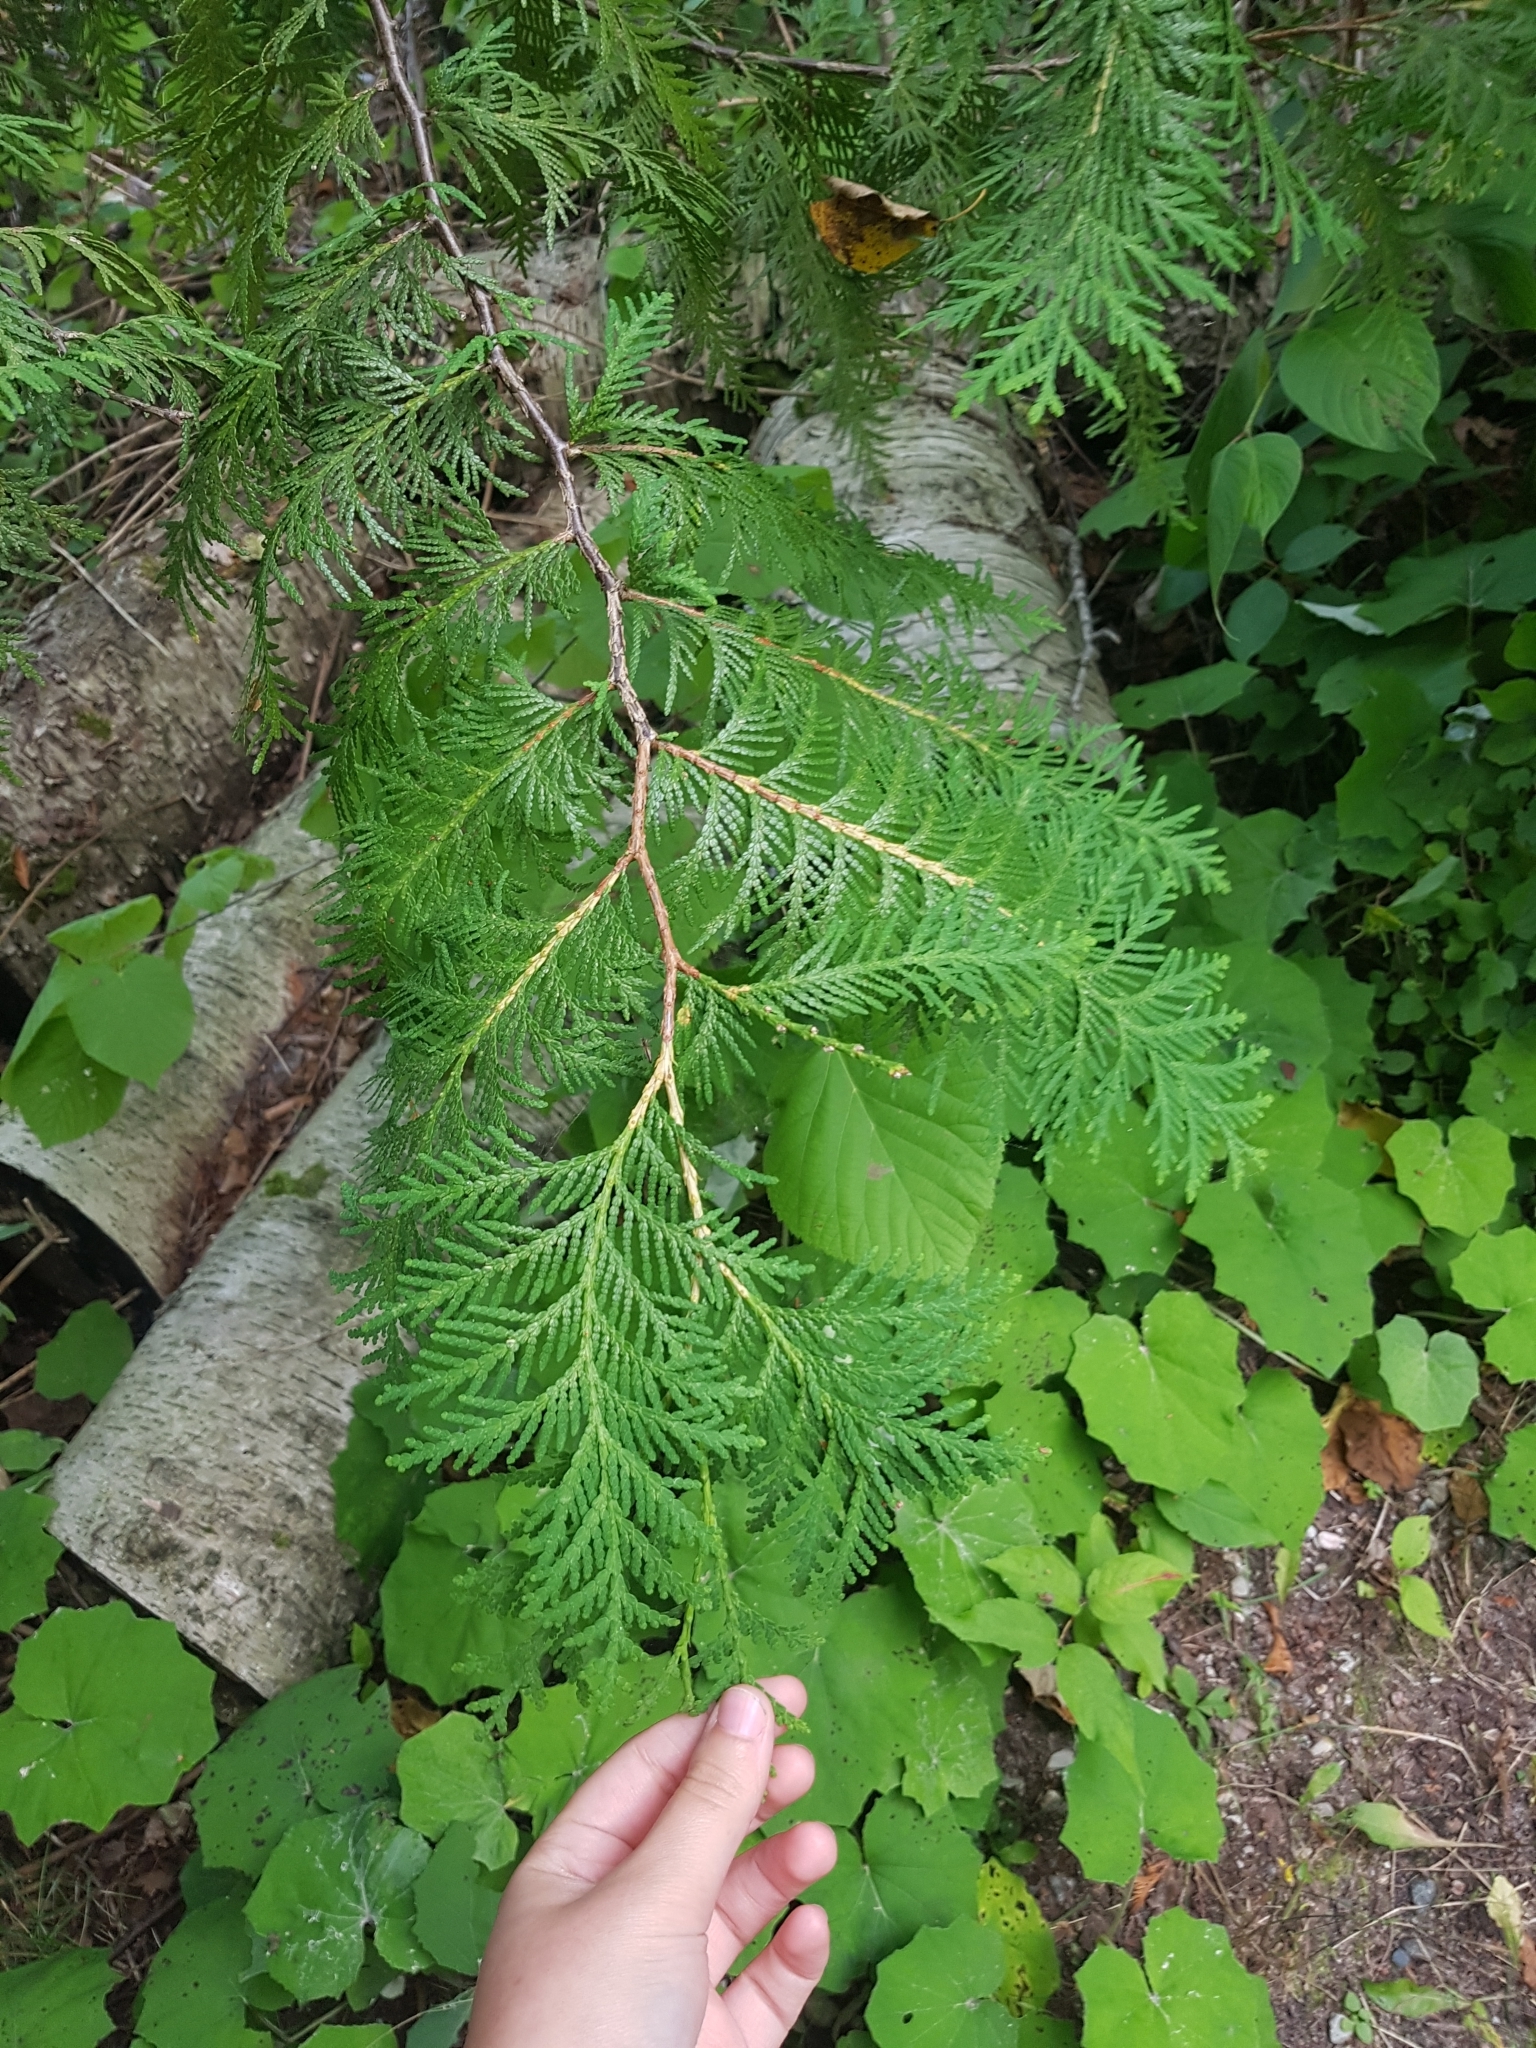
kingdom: Plantae
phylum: Tracheophyta
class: Pinopsida
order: Pinales
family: Cupressaceae
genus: Thuja
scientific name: Thuja occidentalis
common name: Northern white-cedar
